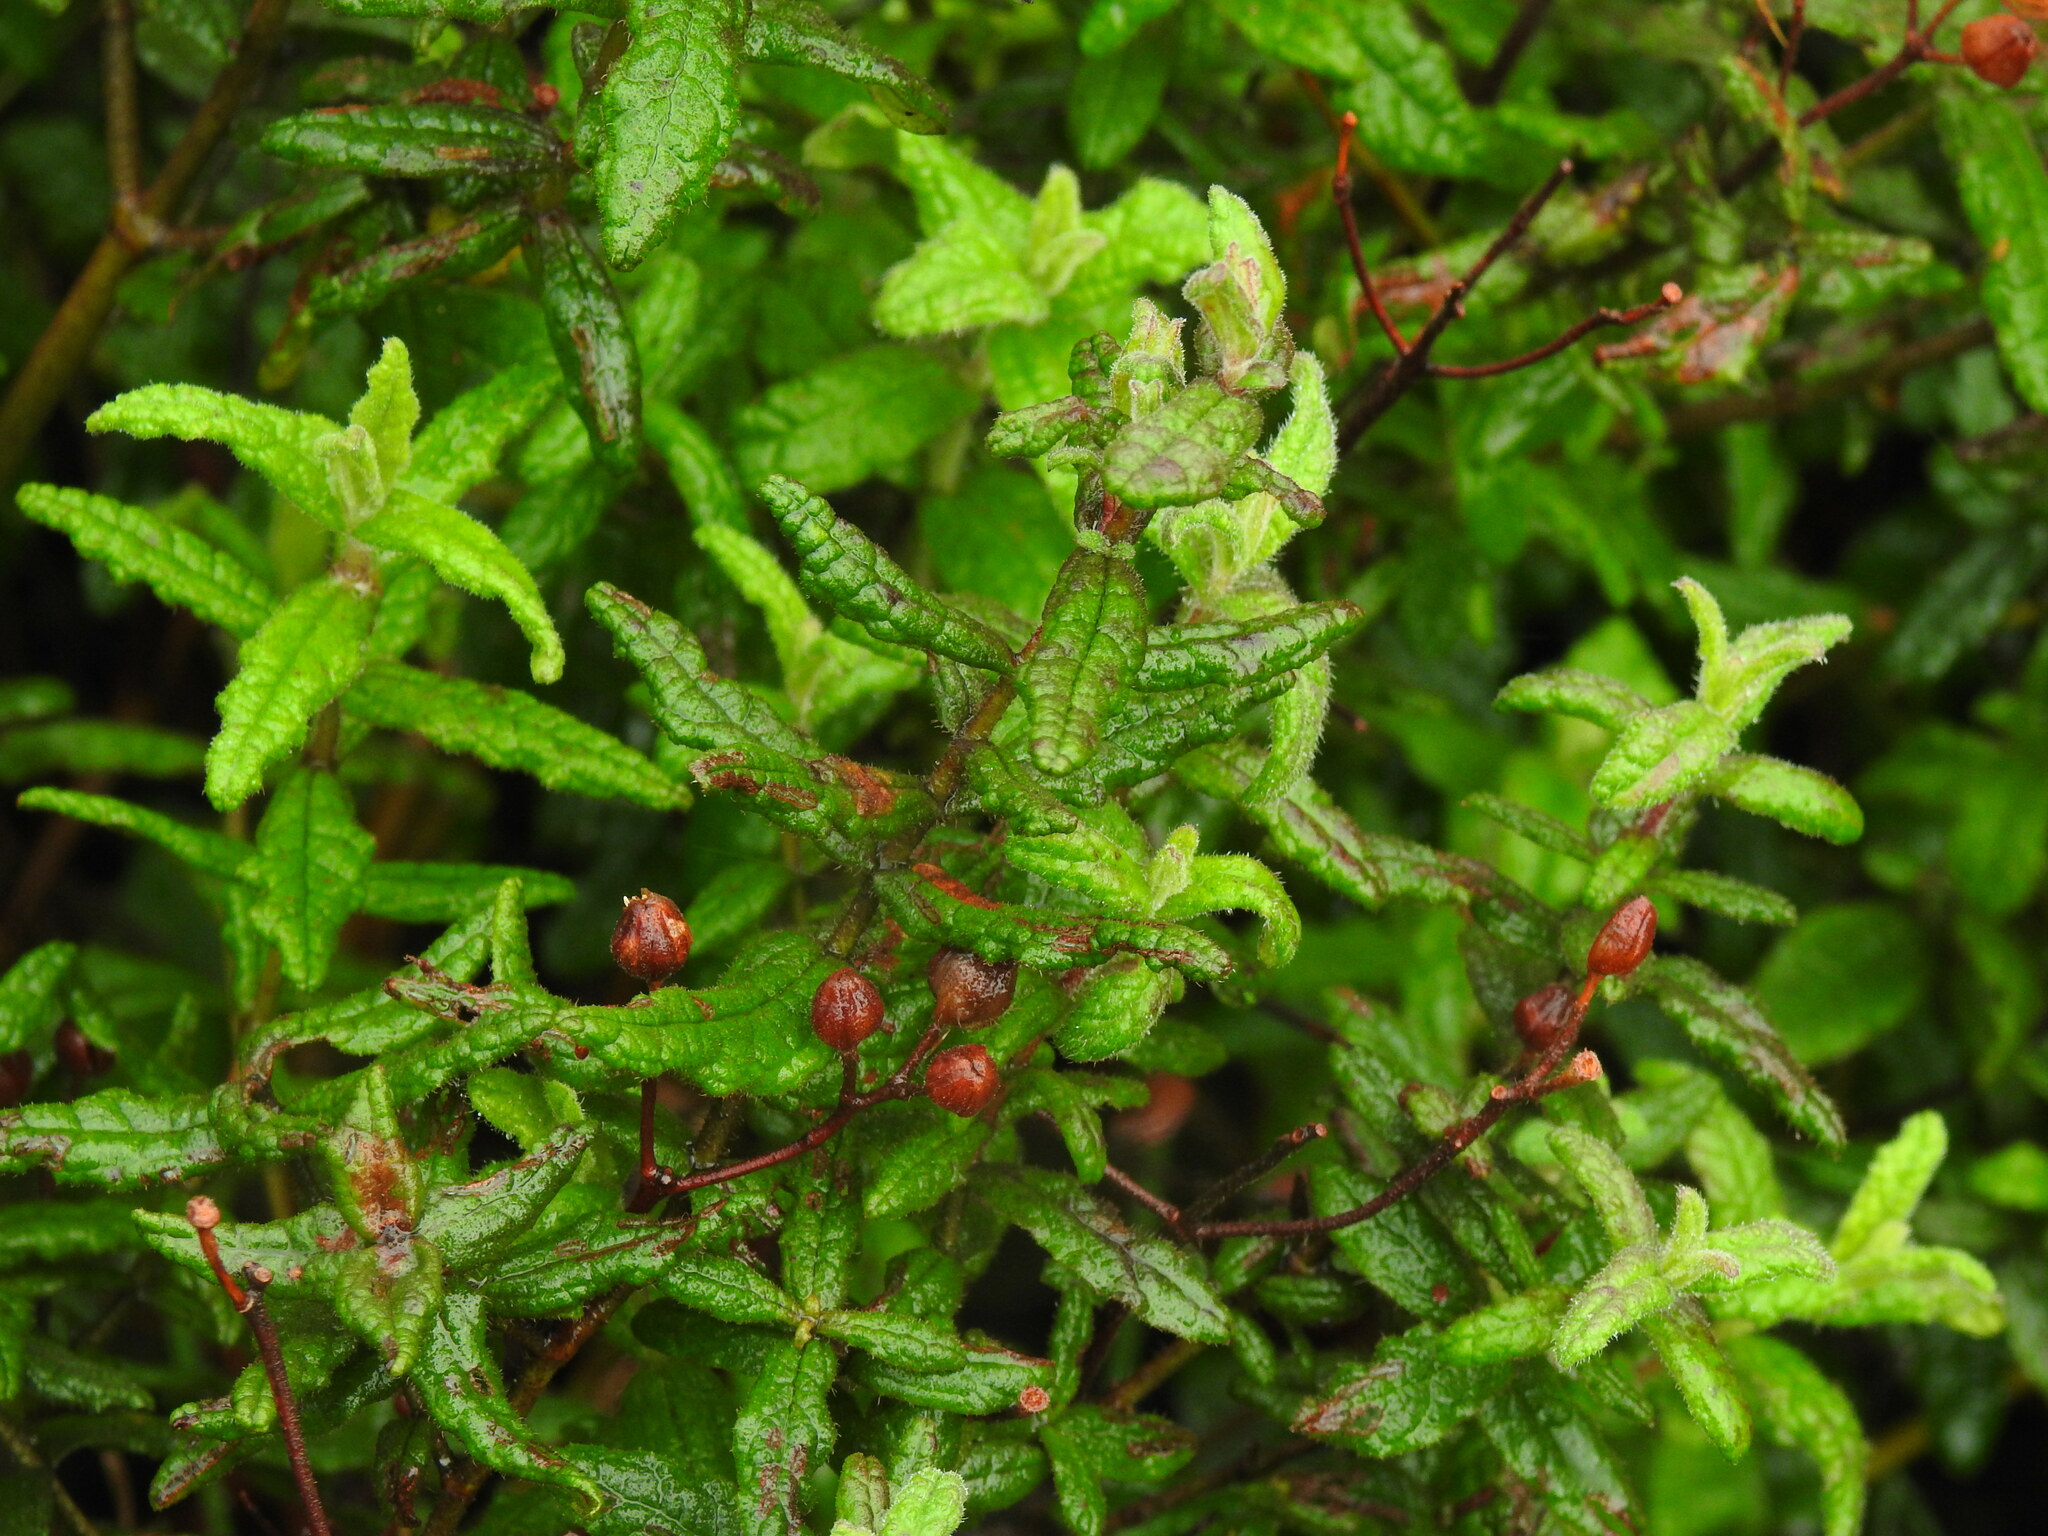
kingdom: Plantae
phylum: Tracheophyta
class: Magnoliopsida
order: Malvales
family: Cistaceae
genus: Cistus
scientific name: Cistus inflatus
